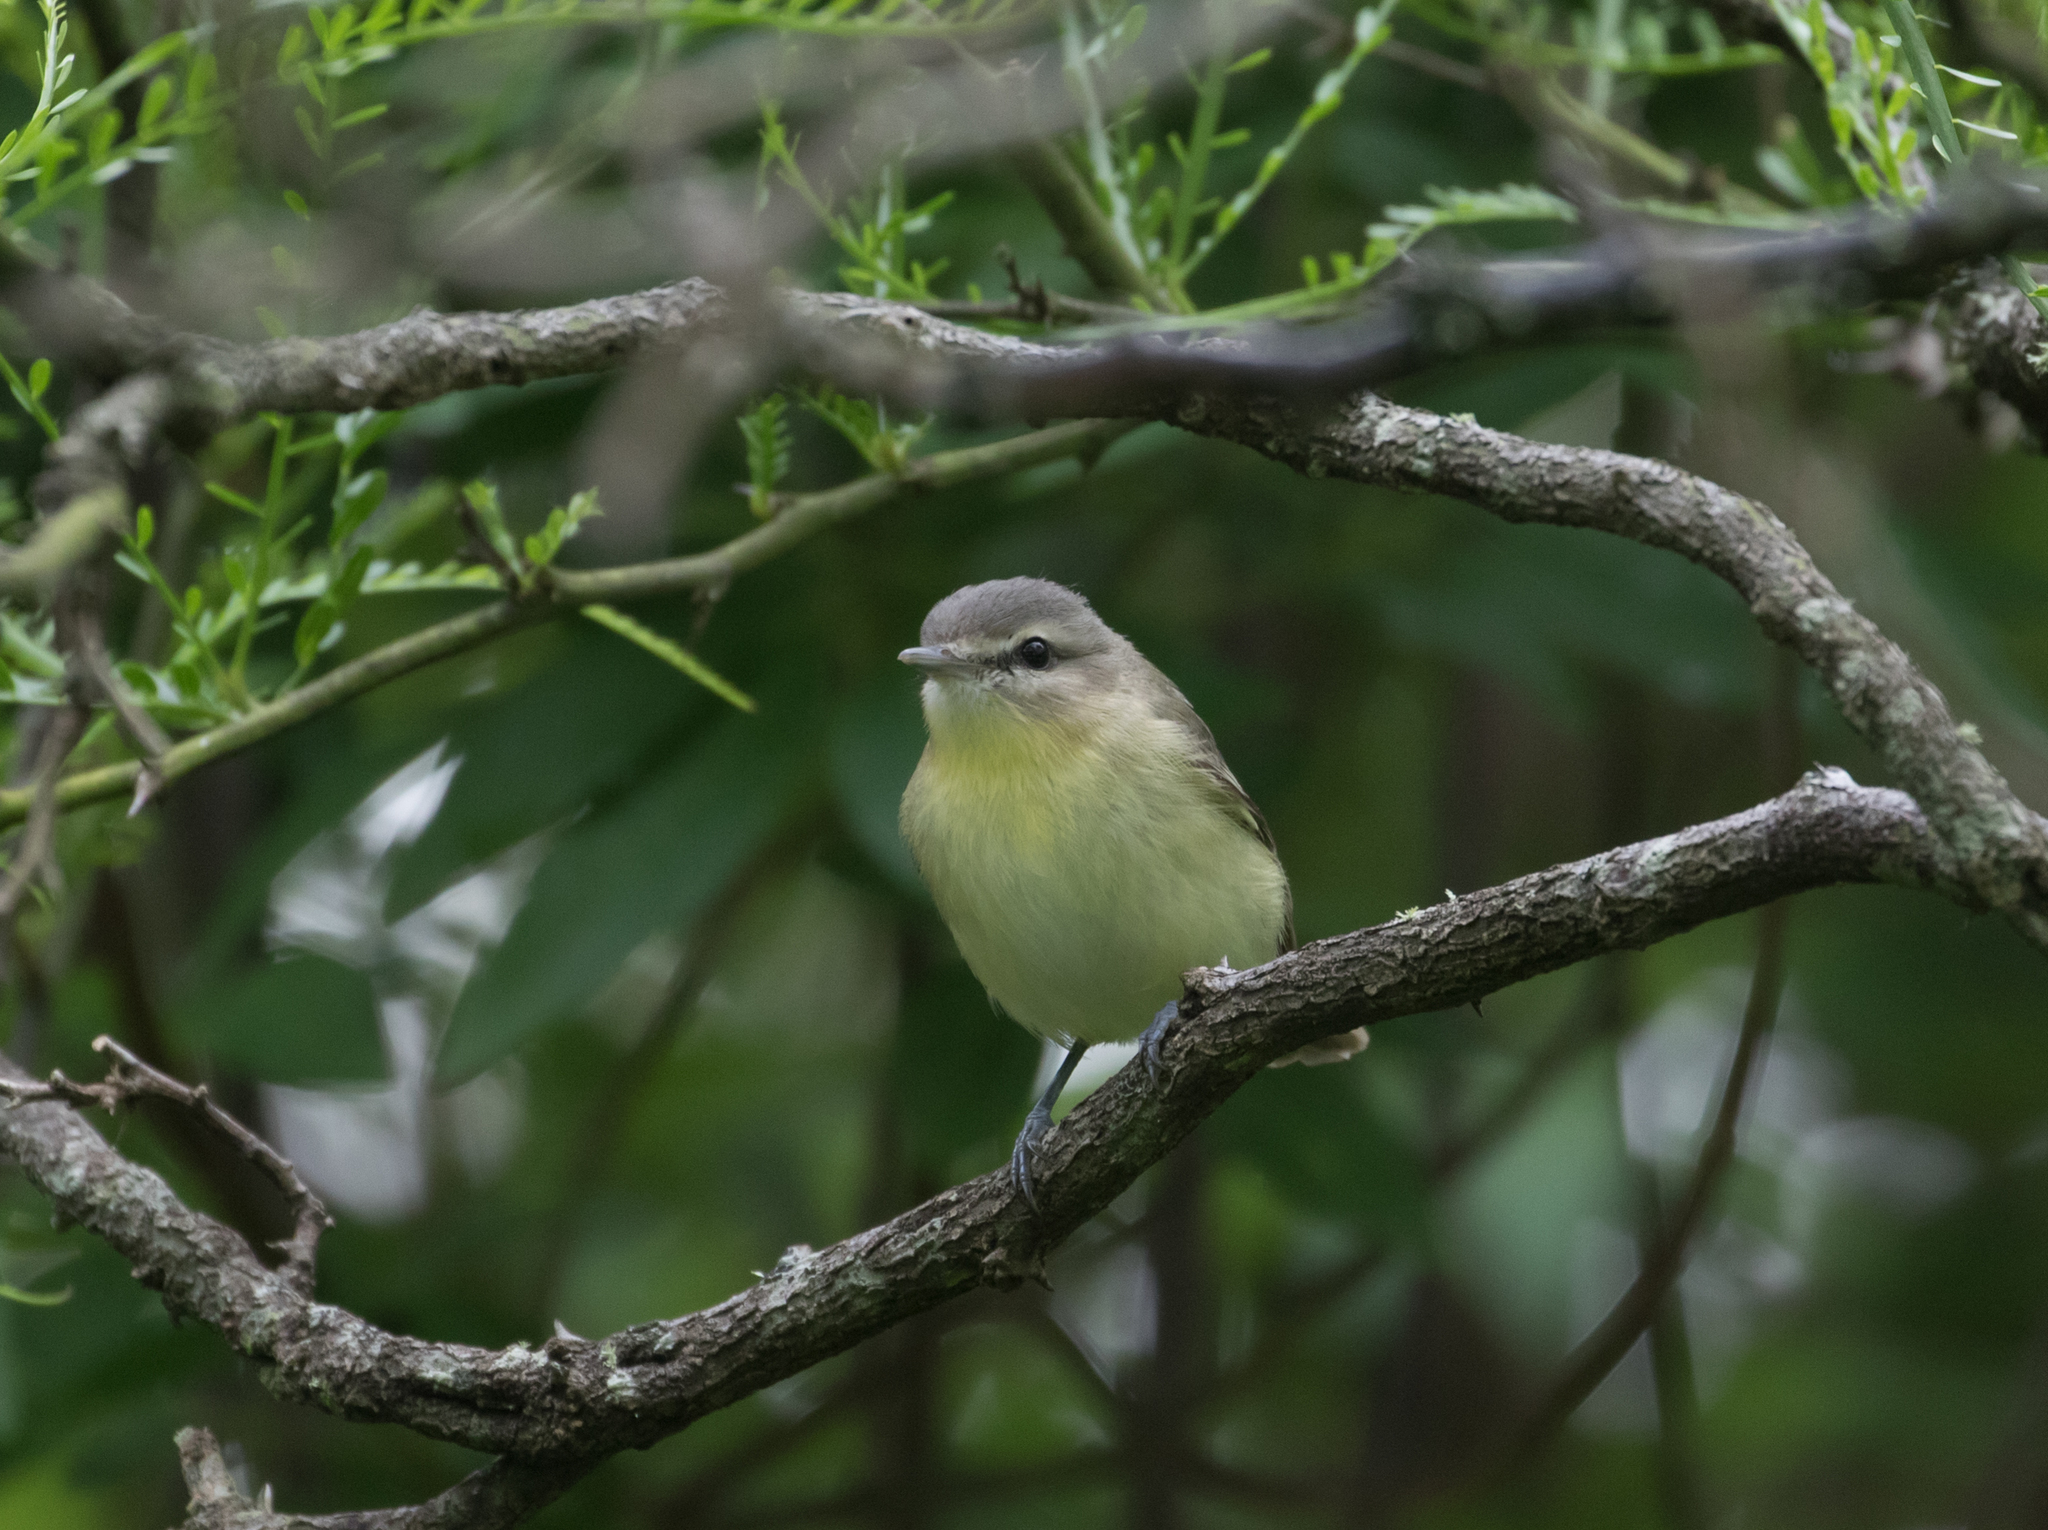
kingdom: Animalia
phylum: Chordata
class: Aves
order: Passeriformes
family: Vireonidae
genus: Vireo
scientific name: Vireo philadelphicus
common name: Philadelphia vireo
